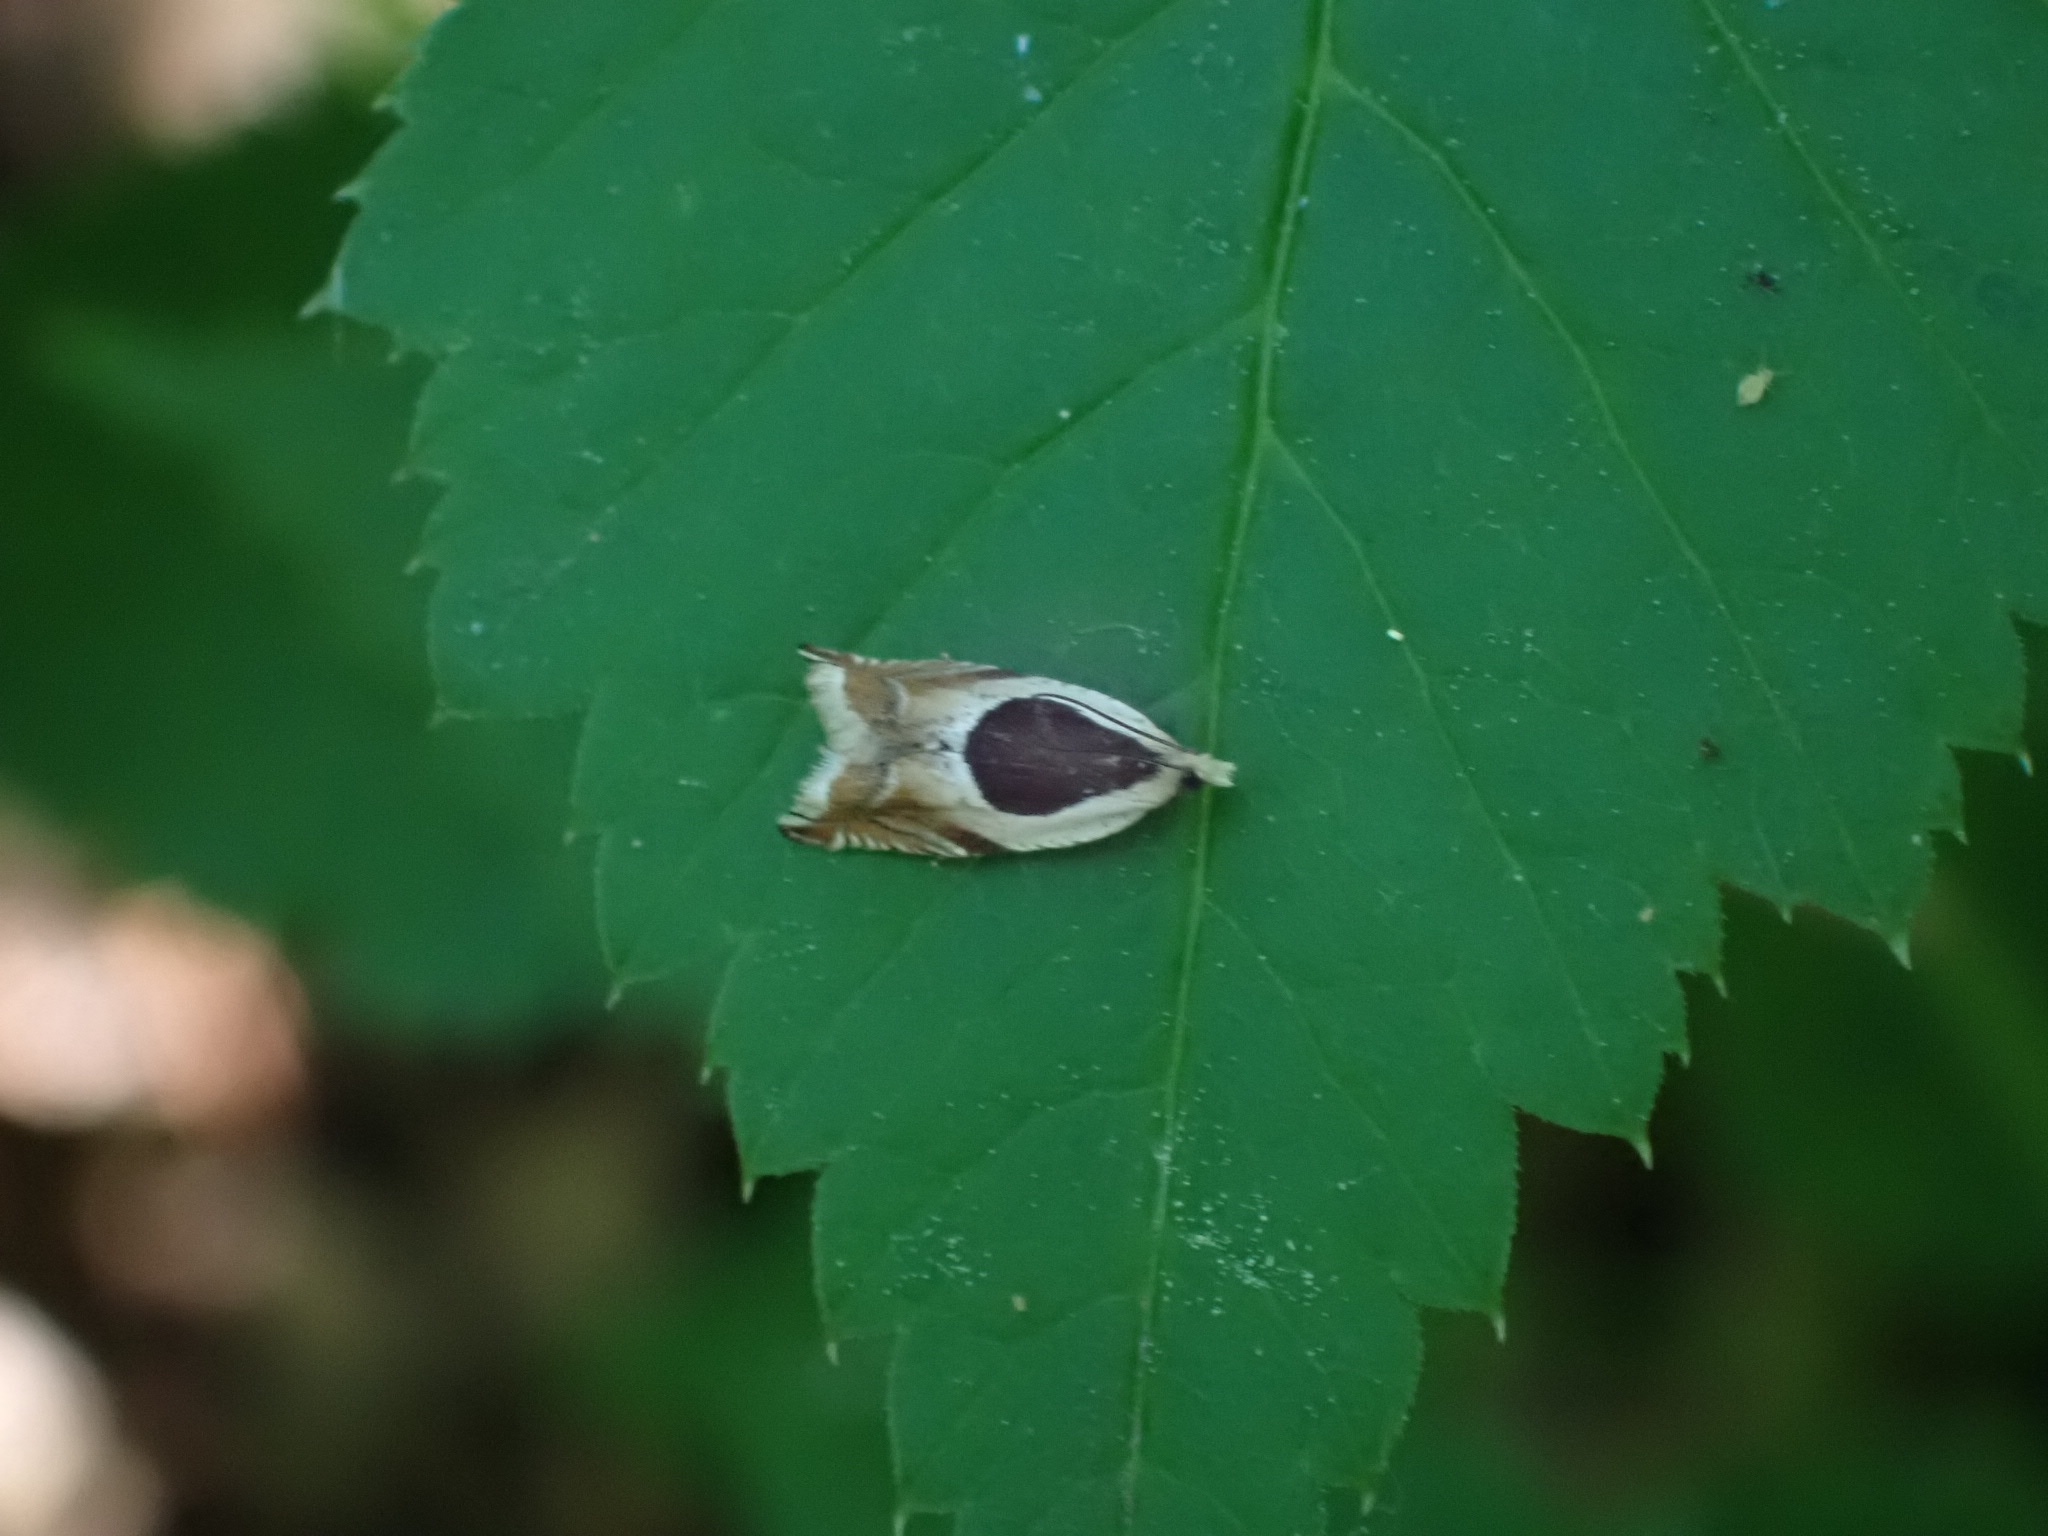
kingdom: Animalia
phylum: Arthropoda
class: Insecta
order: Lepidoptera
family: Tortricidae
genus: Ancylis
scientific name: Ancylis badiana
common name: Common roller
